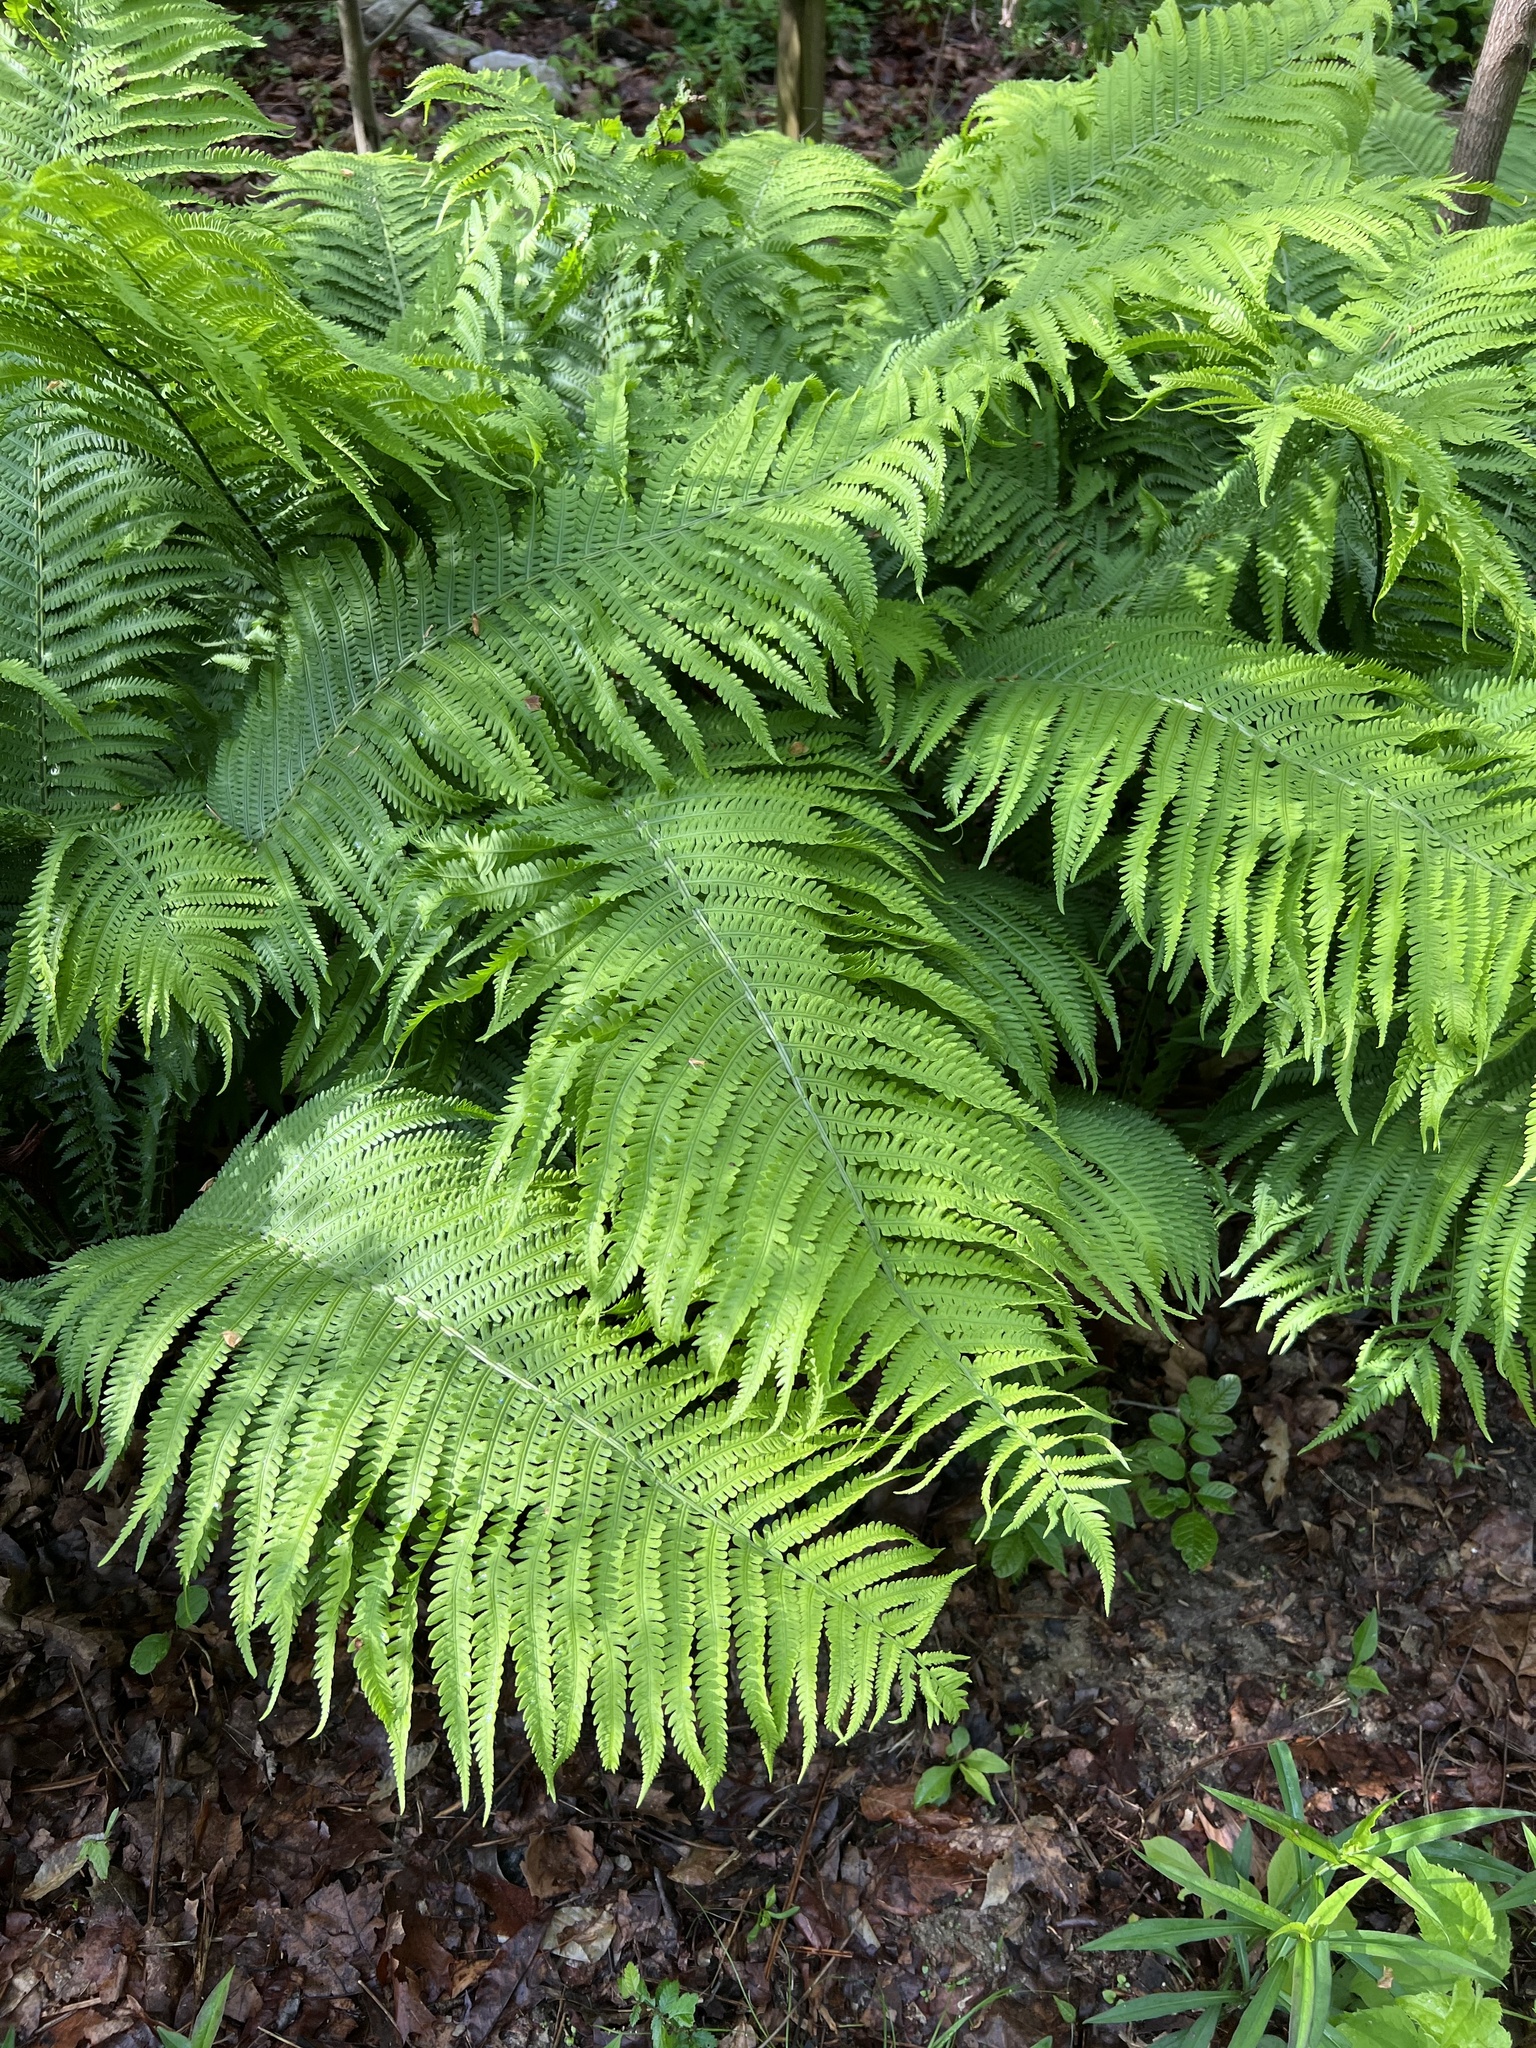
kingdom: Plantae
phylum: Tracheophyta
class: Polypodiopsida
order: Polypodiales
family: Onocleaceae
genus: Matteuccia
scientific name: Matteuccia struthiopteris
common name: Ostrich fern
